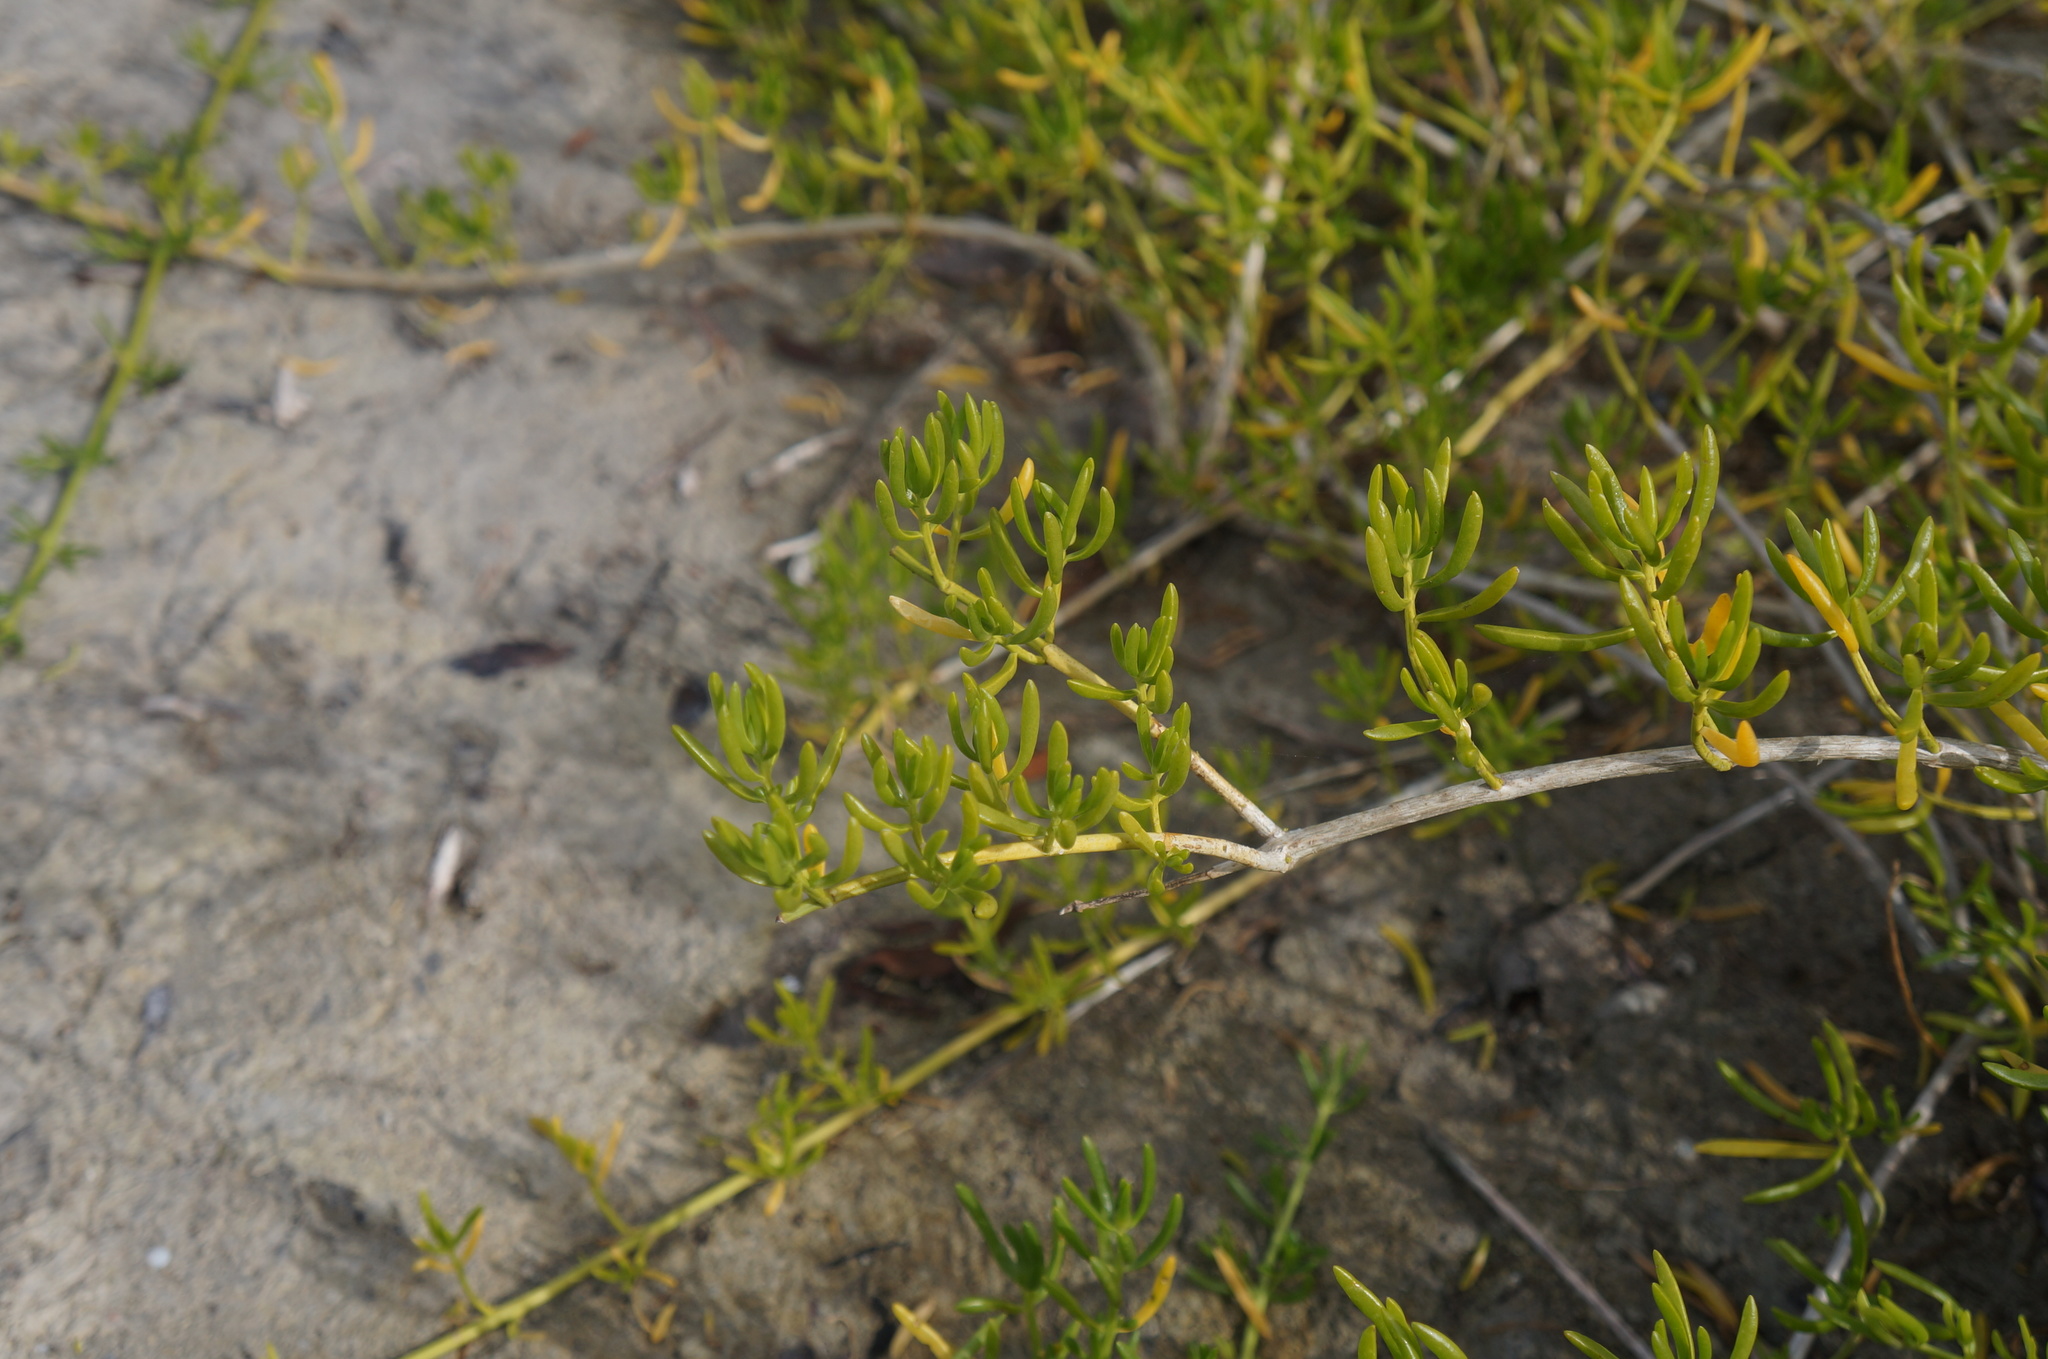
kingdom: Plantae
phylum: Tracheophyta
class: Magnoliopsida
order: Brassicales
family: Bataceae
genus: Batis
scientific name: Batis maritima
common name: Turtleweed
